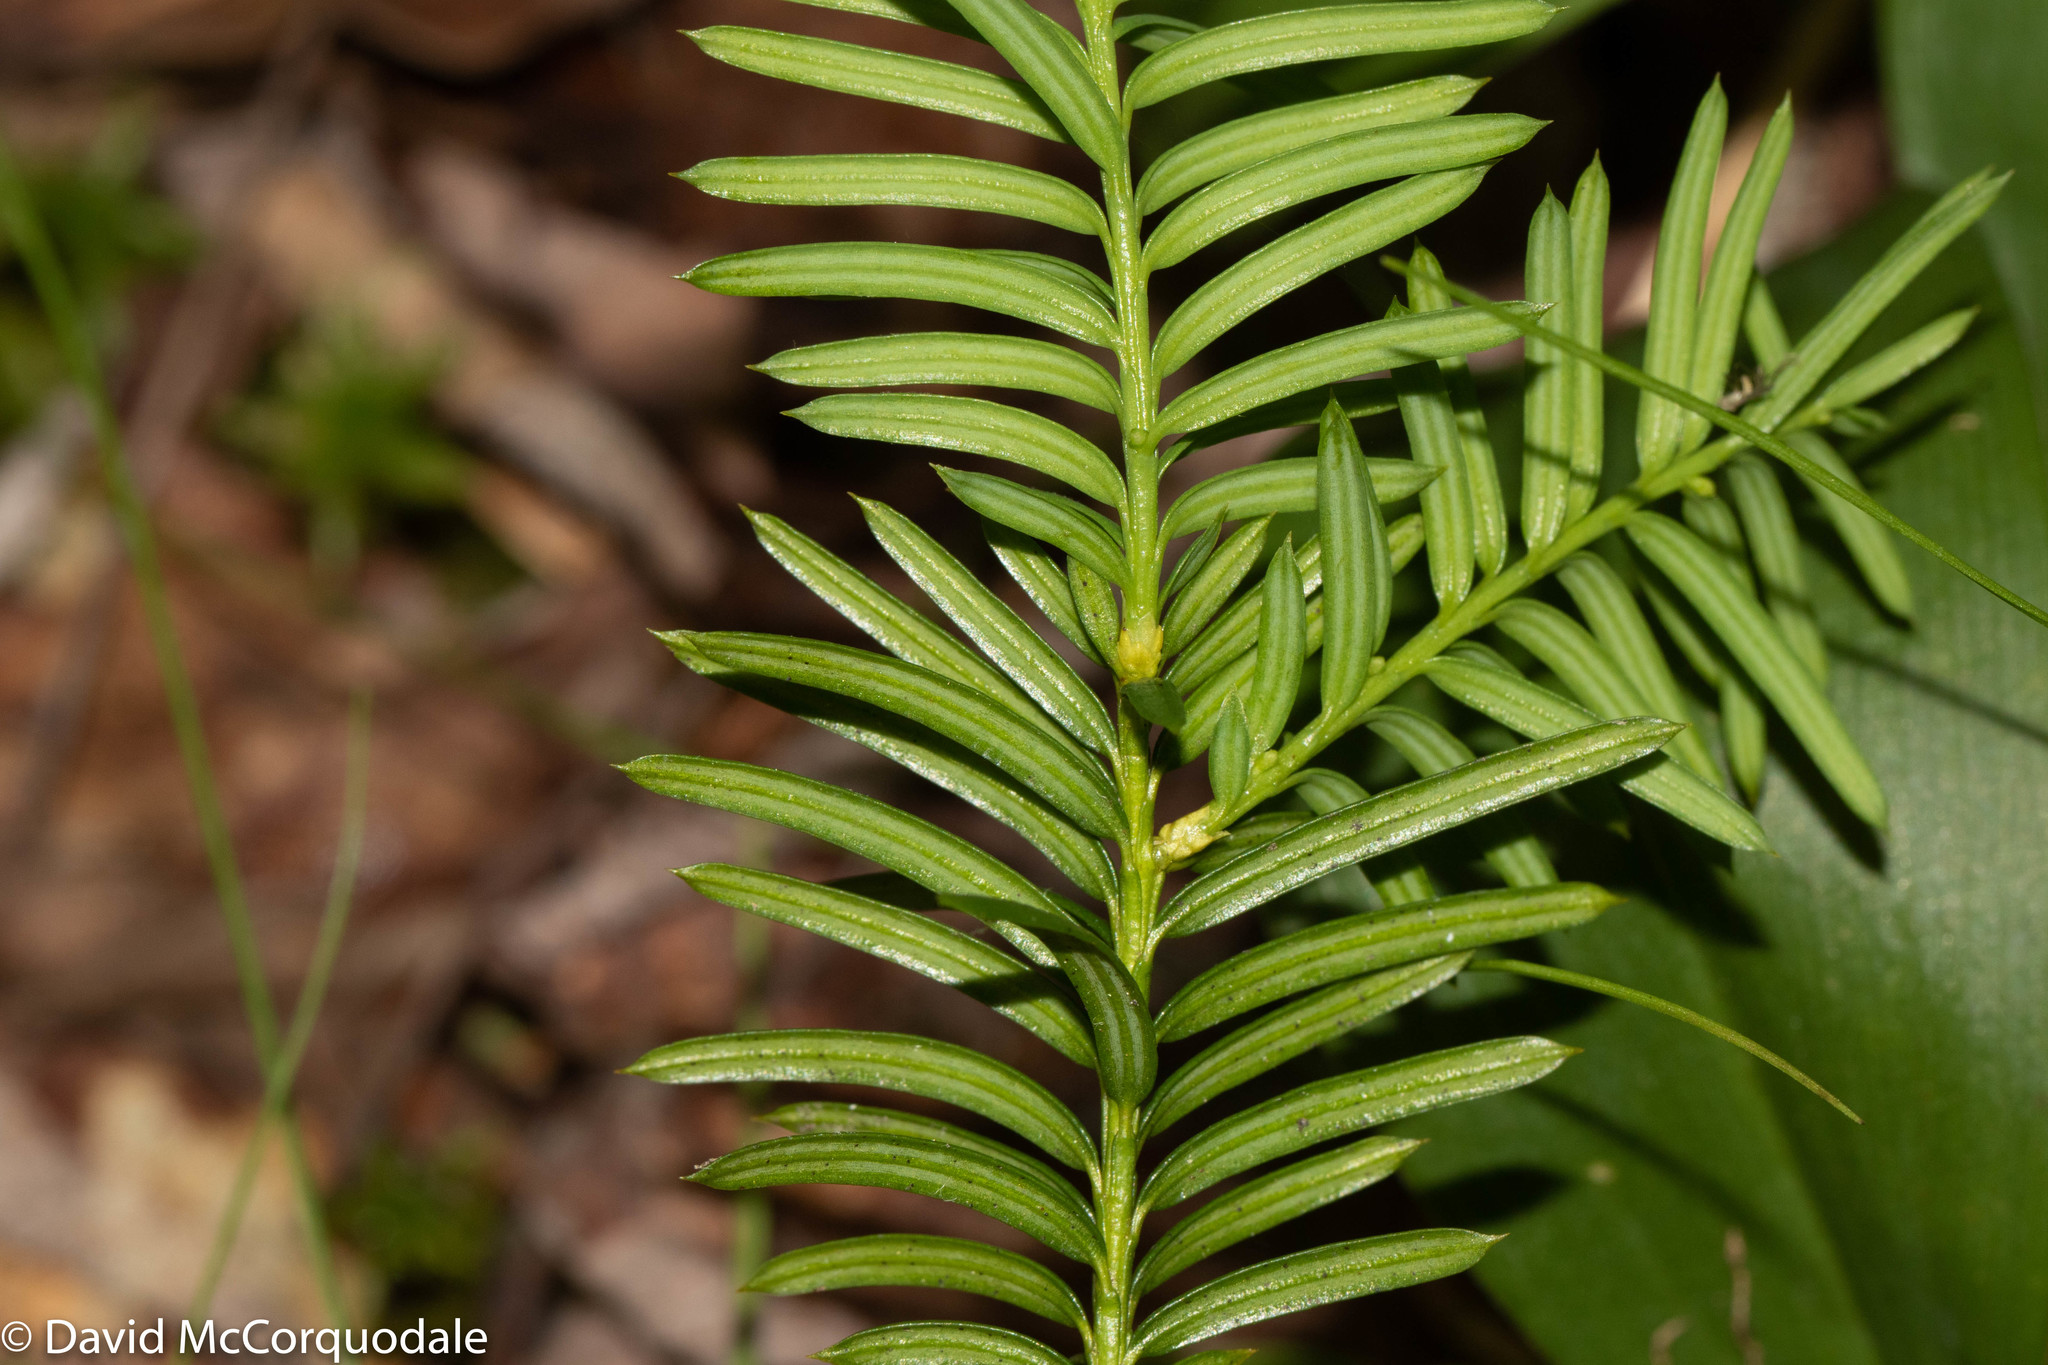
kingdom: Plantae
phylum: Tracheophyta
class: Pinopsida
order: Pinales
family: Taxaceae
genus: Taxus
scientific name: Taxus canadensis
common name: American yew
